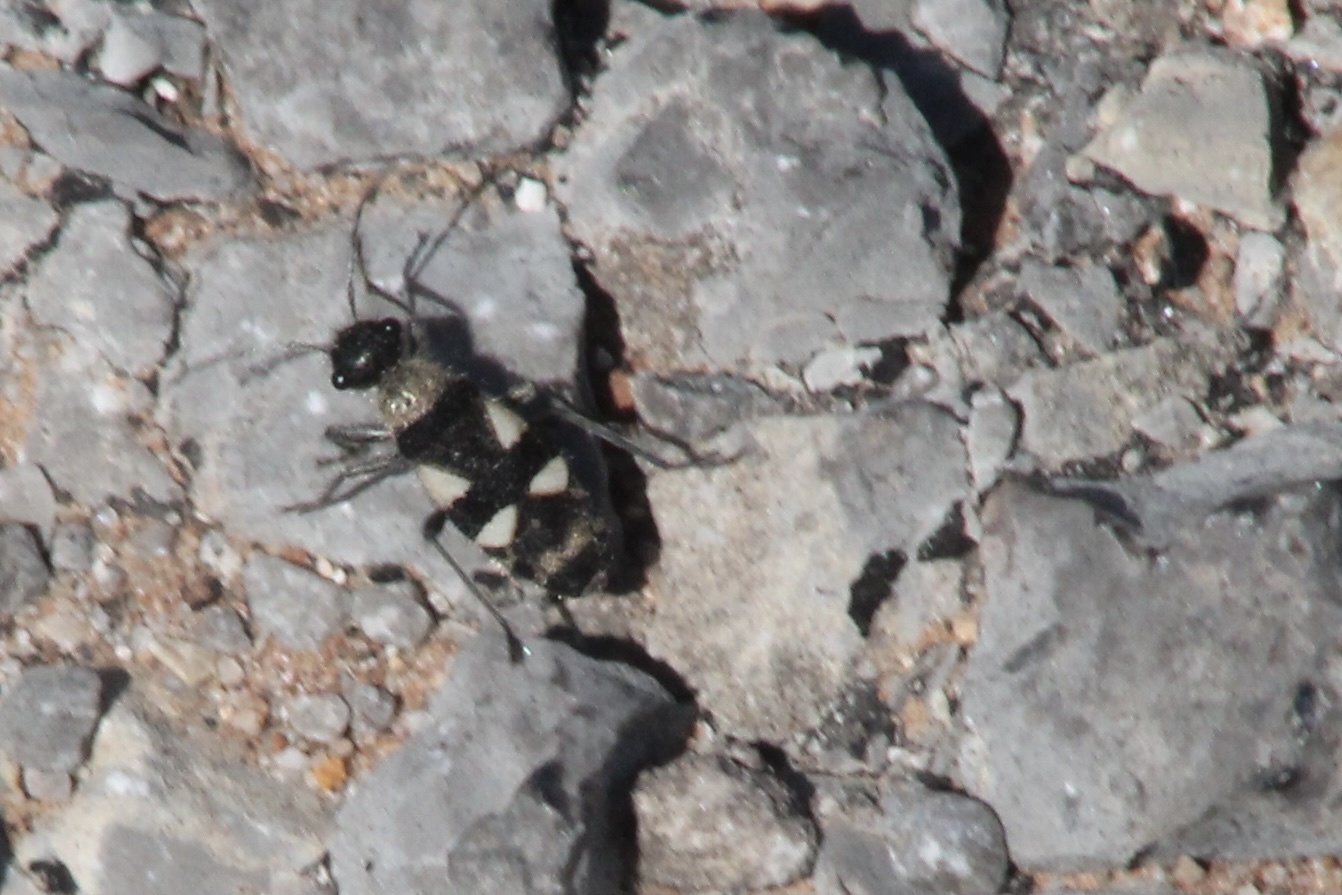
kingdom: Animalia
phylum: Arthropoda
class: Insecta
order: Hemiptera
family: Largidae
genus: Arhaphe
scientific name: Arhaphe breviata
